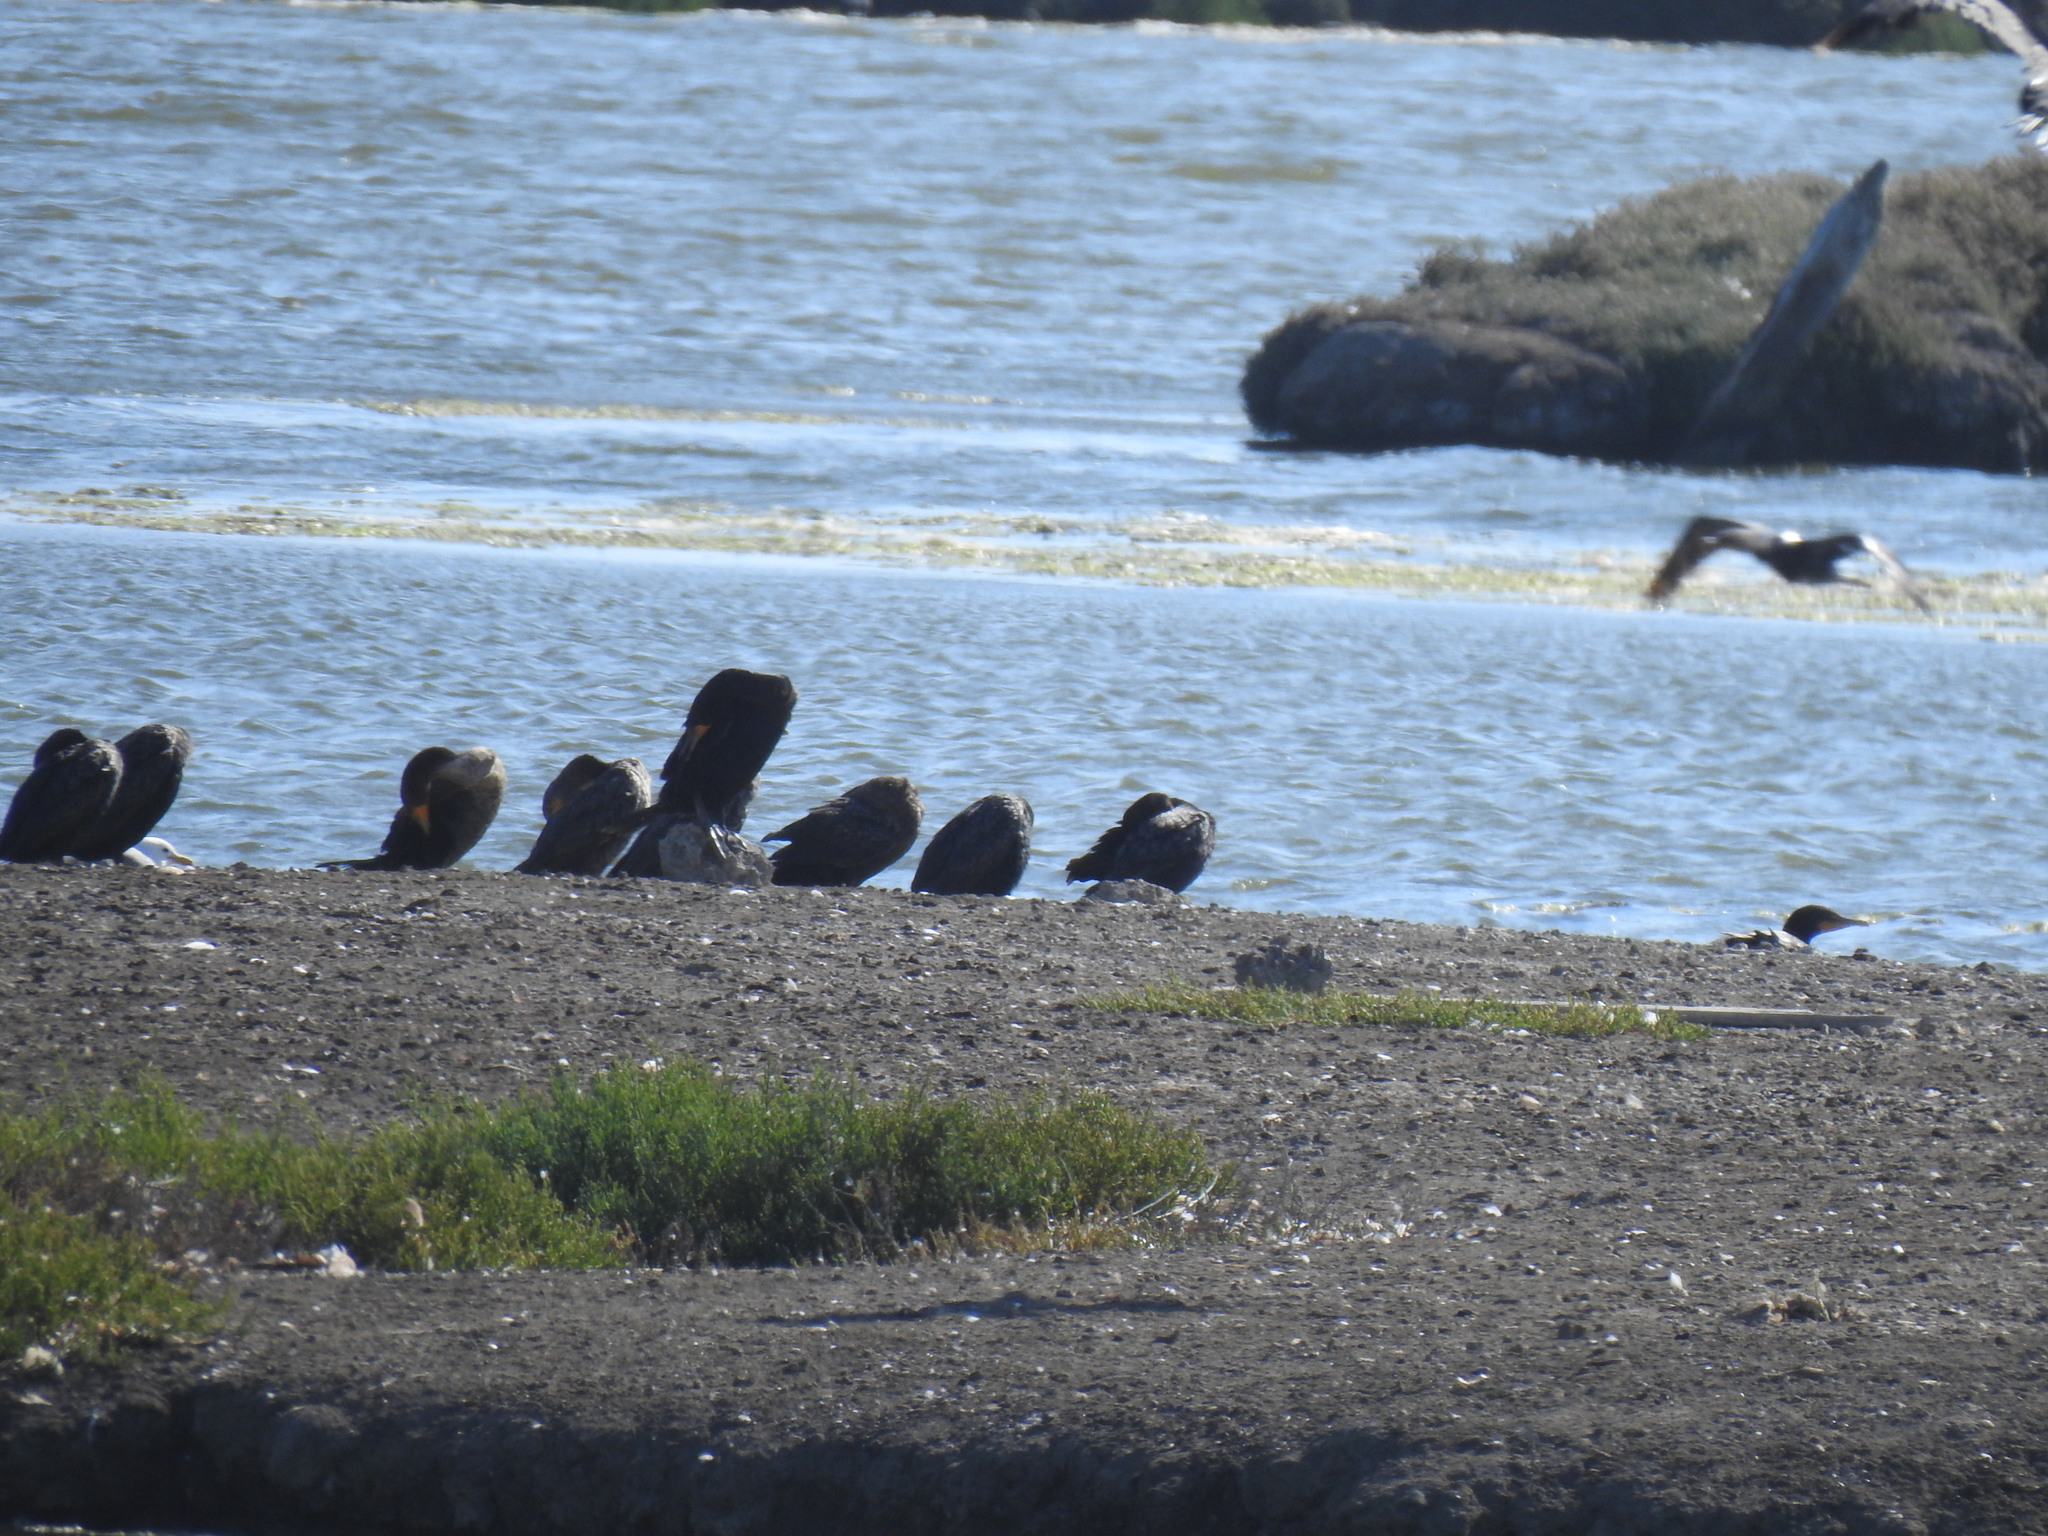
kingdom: Animalia
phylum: Chordata
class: Aves
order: Suliformes
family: Phalacrocoracidae
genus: Phalacrocorax
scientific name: Phalacrocorax auritus
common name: Double-crested cormorant
